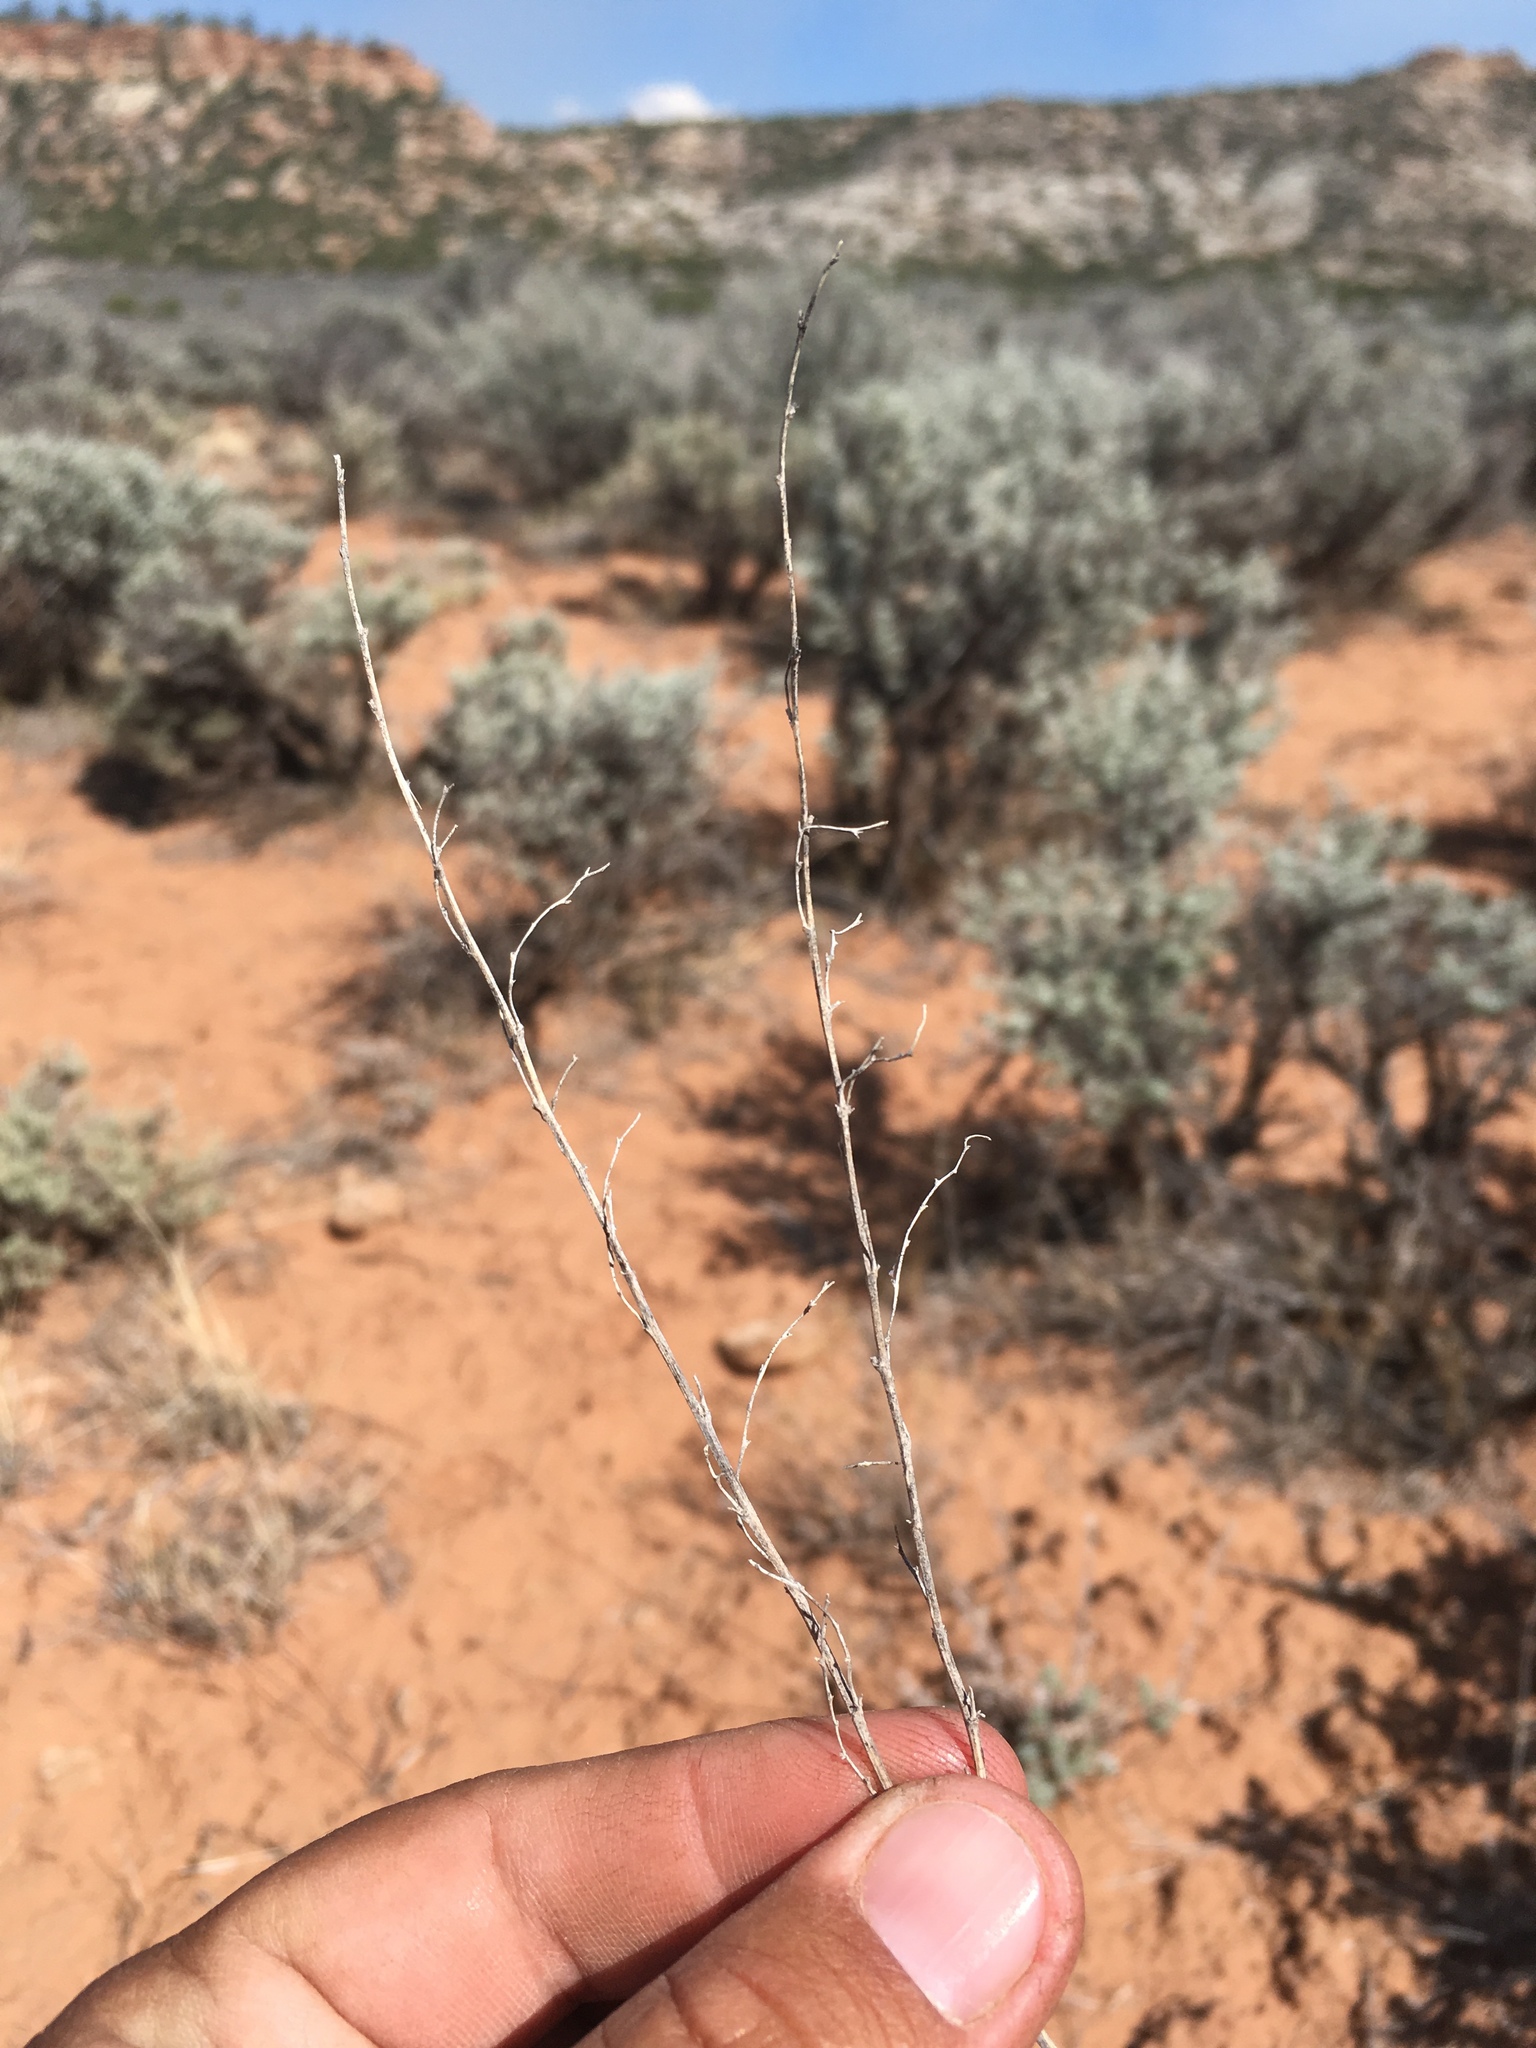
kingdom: Plantae
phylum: Tracheophyta
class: Magnoliopsida
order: Asterales
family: Asteraceae
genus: Artemisia
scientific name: Artemisia frigida
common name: Prairie sagewort
